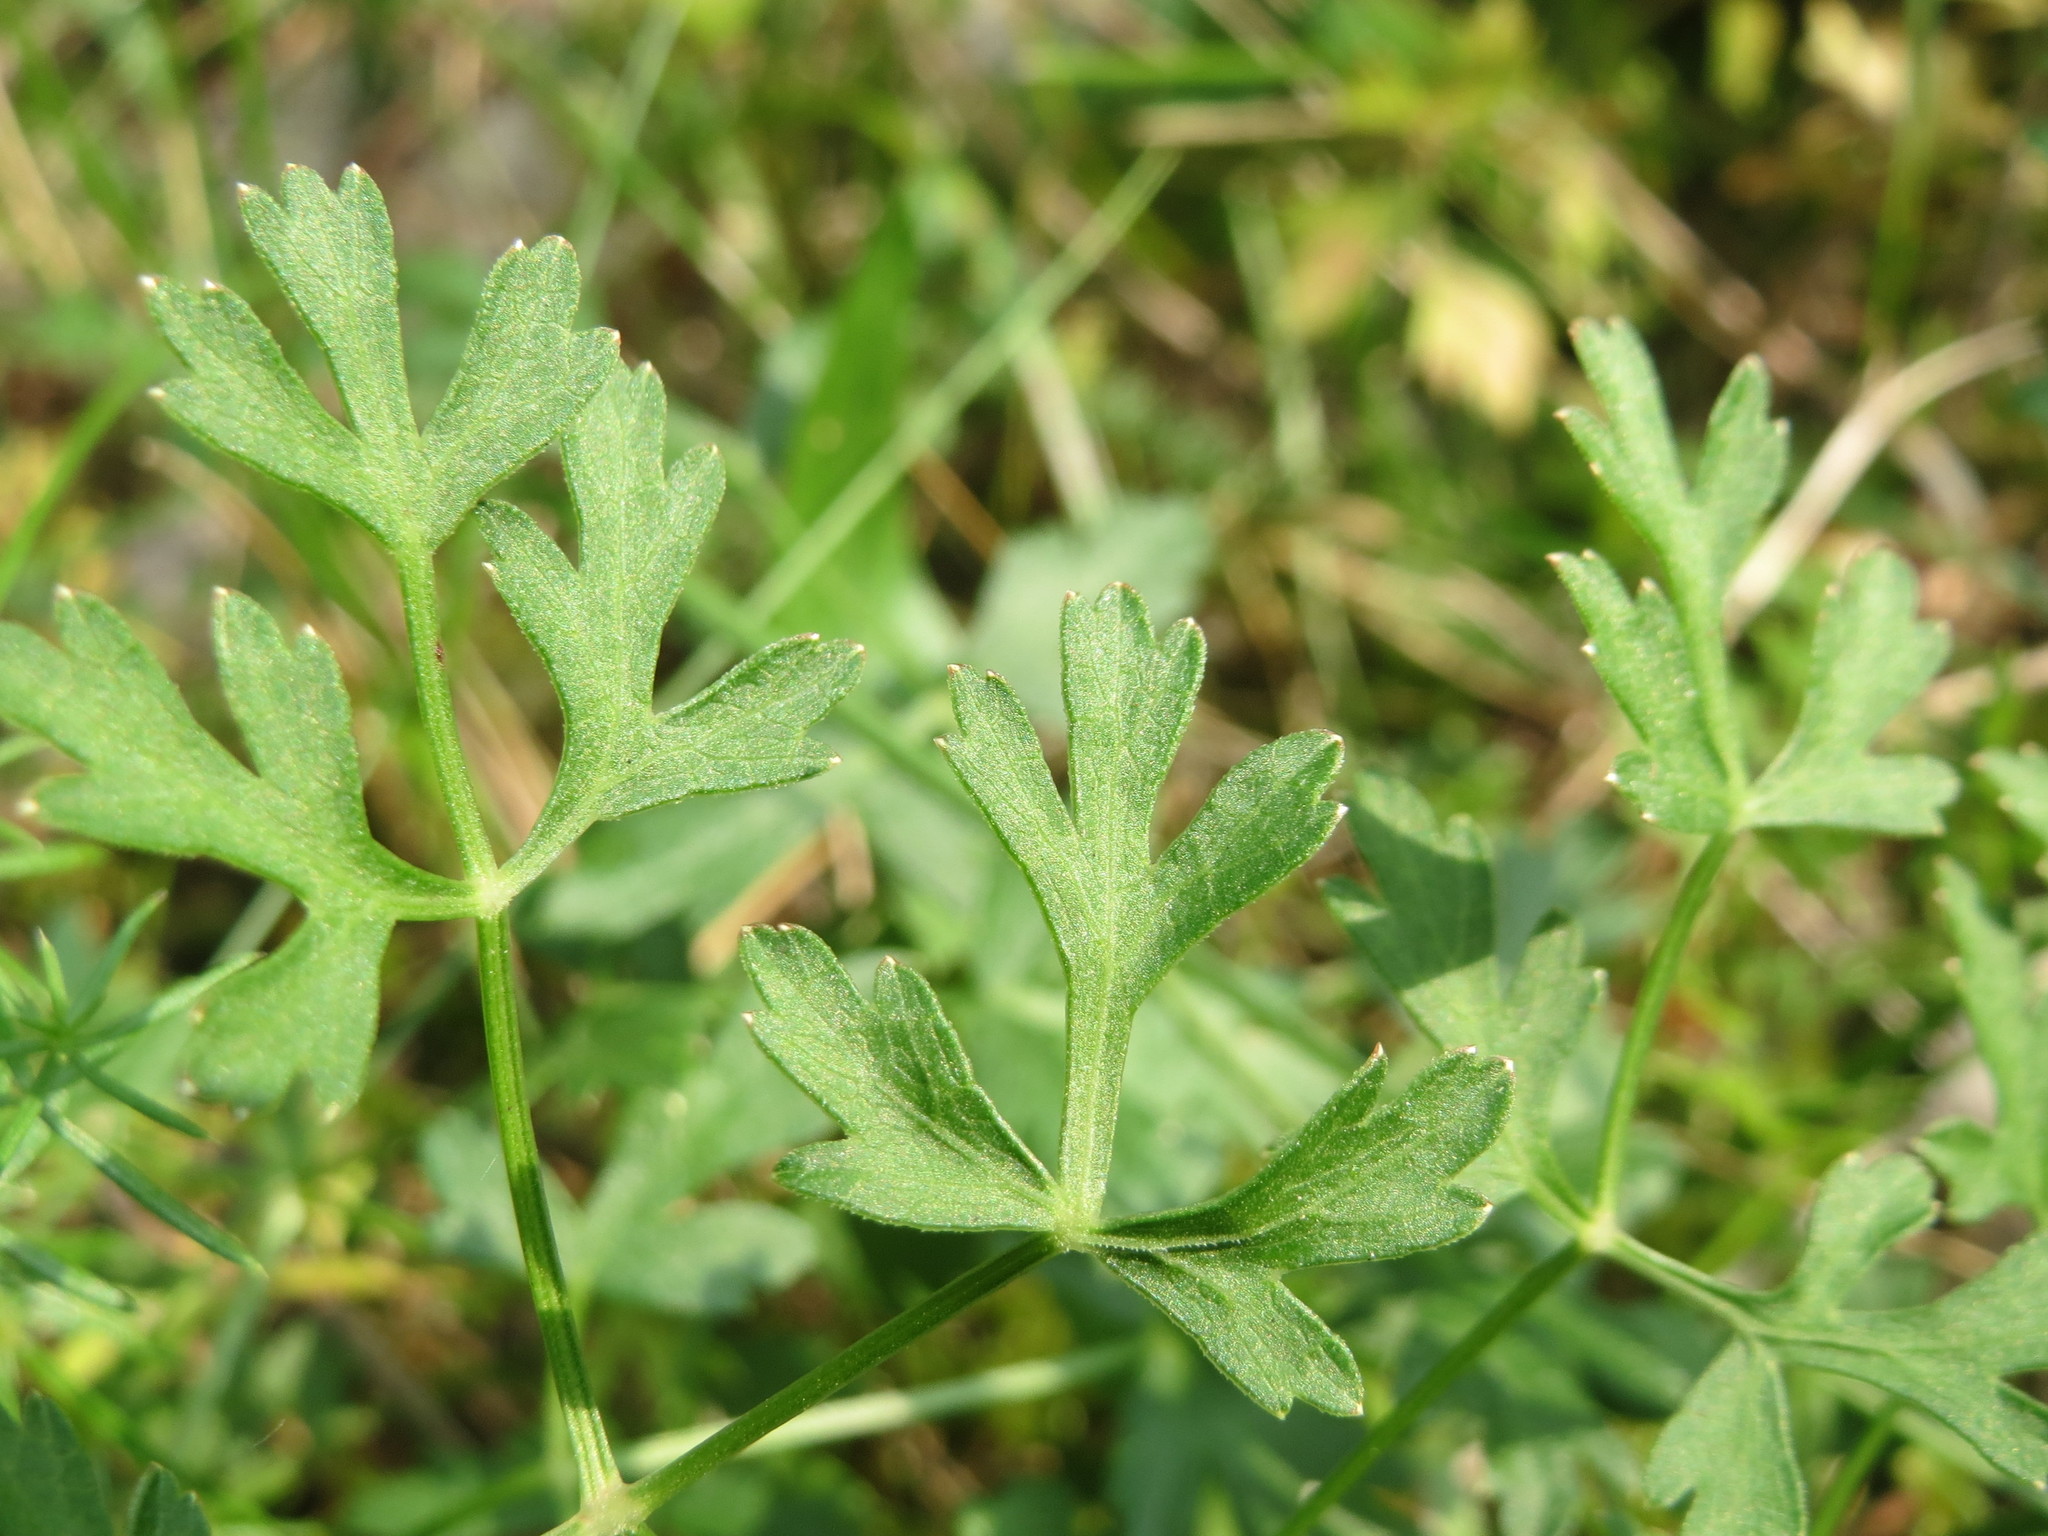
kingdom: Plantae
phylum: Tracheophyta
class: Magnoliopsida
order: Apiales
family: Apiaceae
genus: Oreoselinum
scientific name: Oreoselinum nigrum
